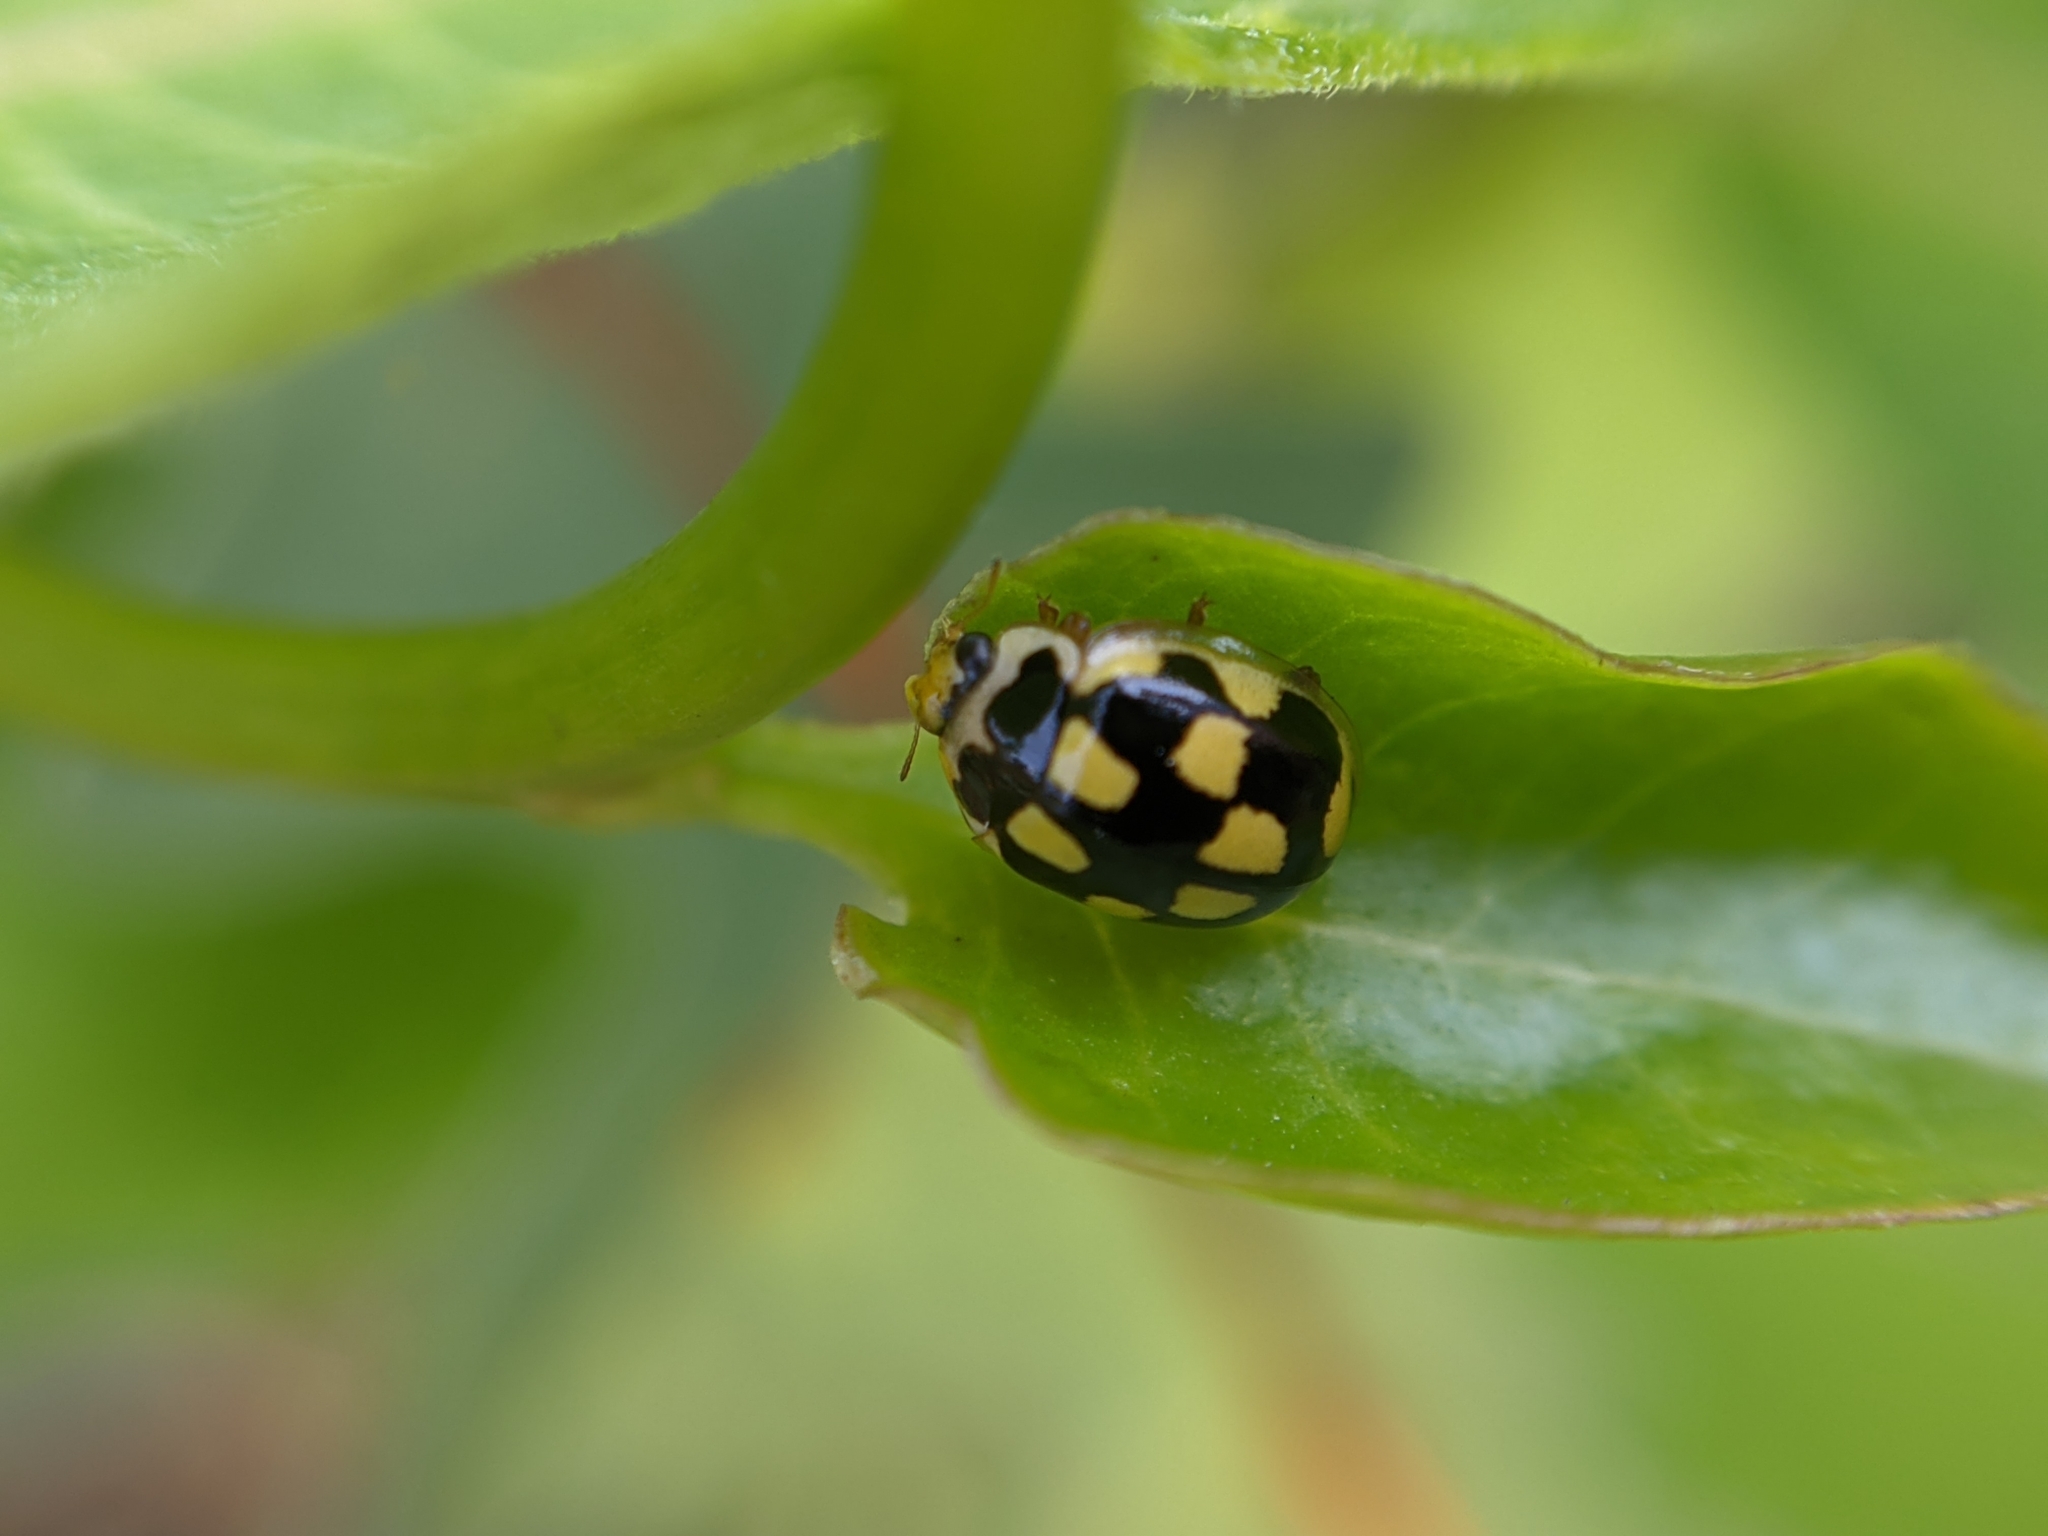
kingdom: Animalia
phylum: Arthropoda
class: Insecta
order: Coleoptera
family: Coccinellidae
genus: Propylaea
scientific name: Propylaea quatuordecimpunctata
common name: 14-spotted ladybird beetle
